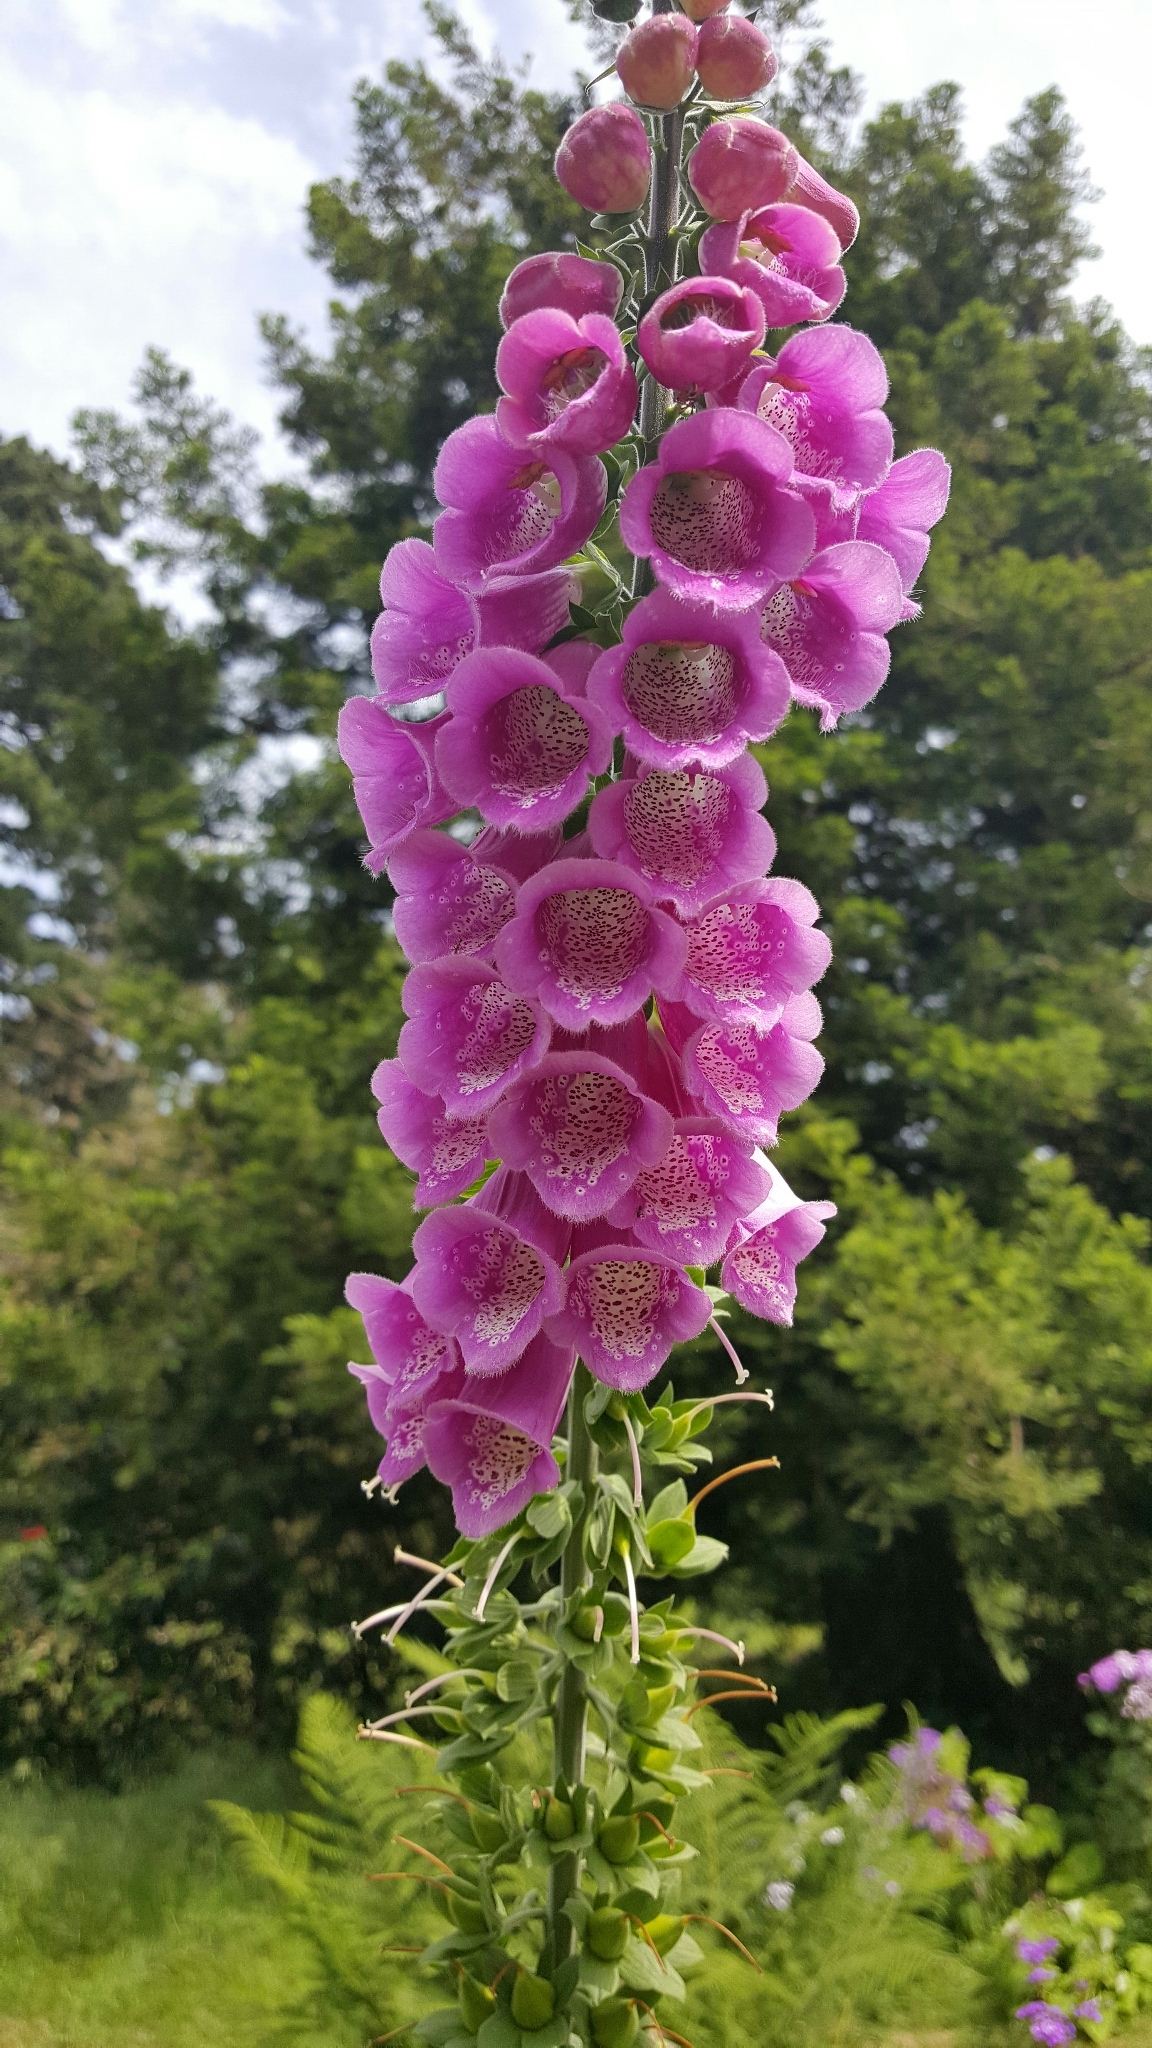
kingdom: Plantae
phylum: Tracheophyta
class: Magnoliopsida
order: Lamiales
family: Plantaginaceae
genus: Digitalis
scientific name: Digitalis purpurea
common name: Foxglove
